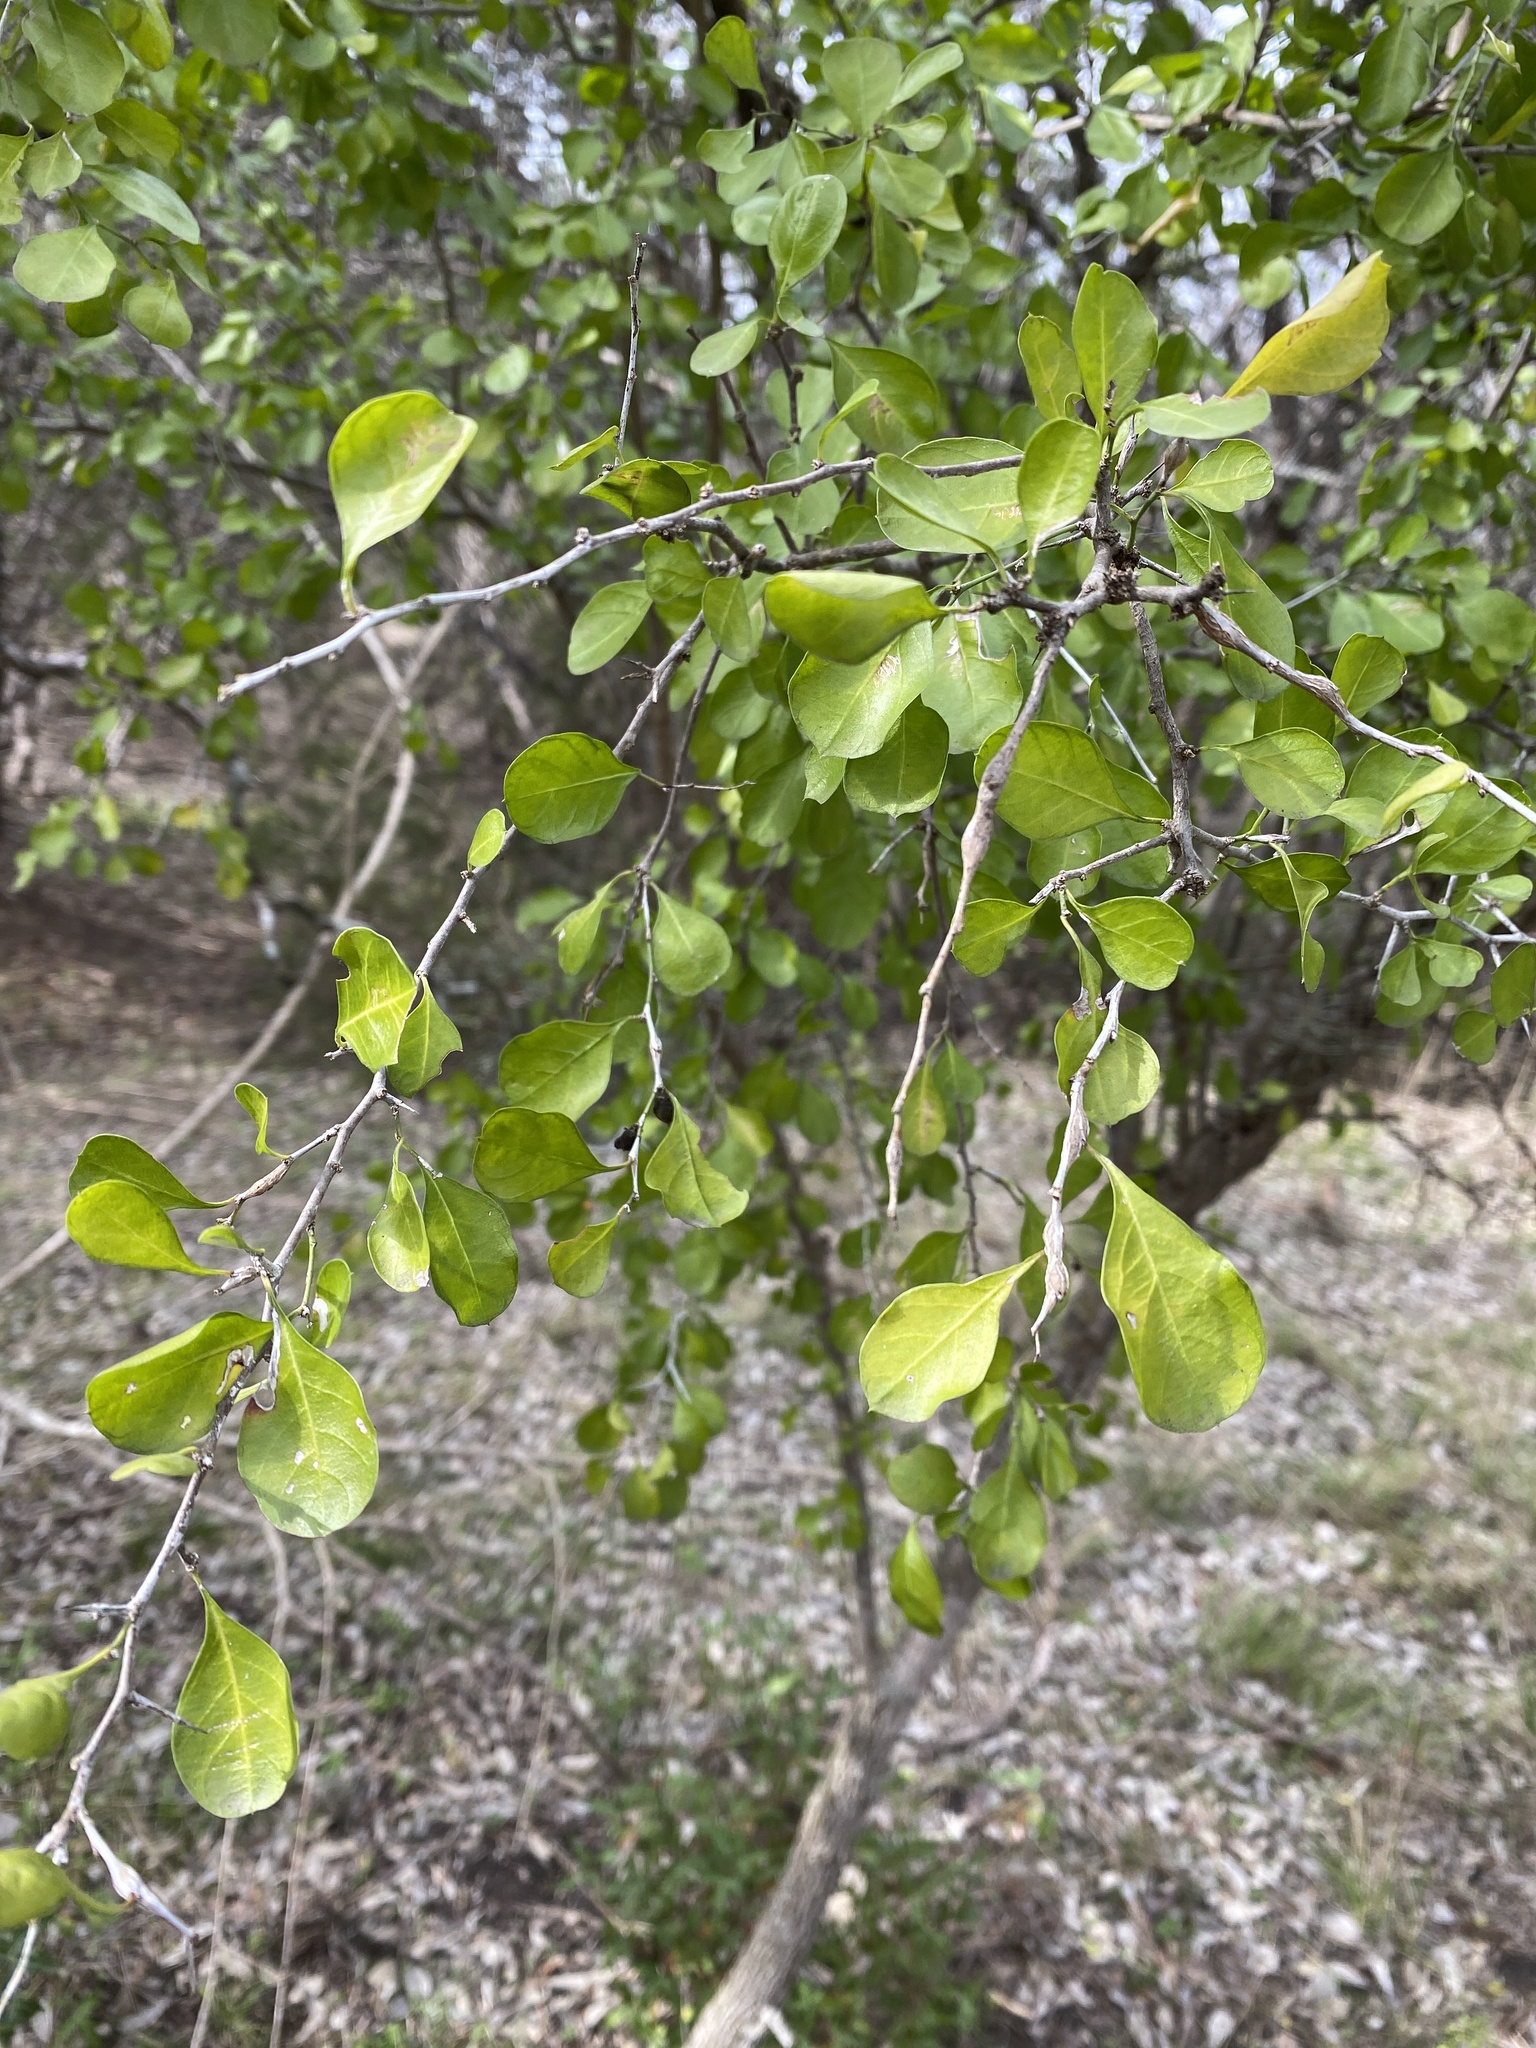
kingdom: Plantae
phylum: Tracheophyta
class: Magnoliopsida
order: Rosales
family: Rhamnaceae
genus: Condalia
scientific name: Condalia hookeri
